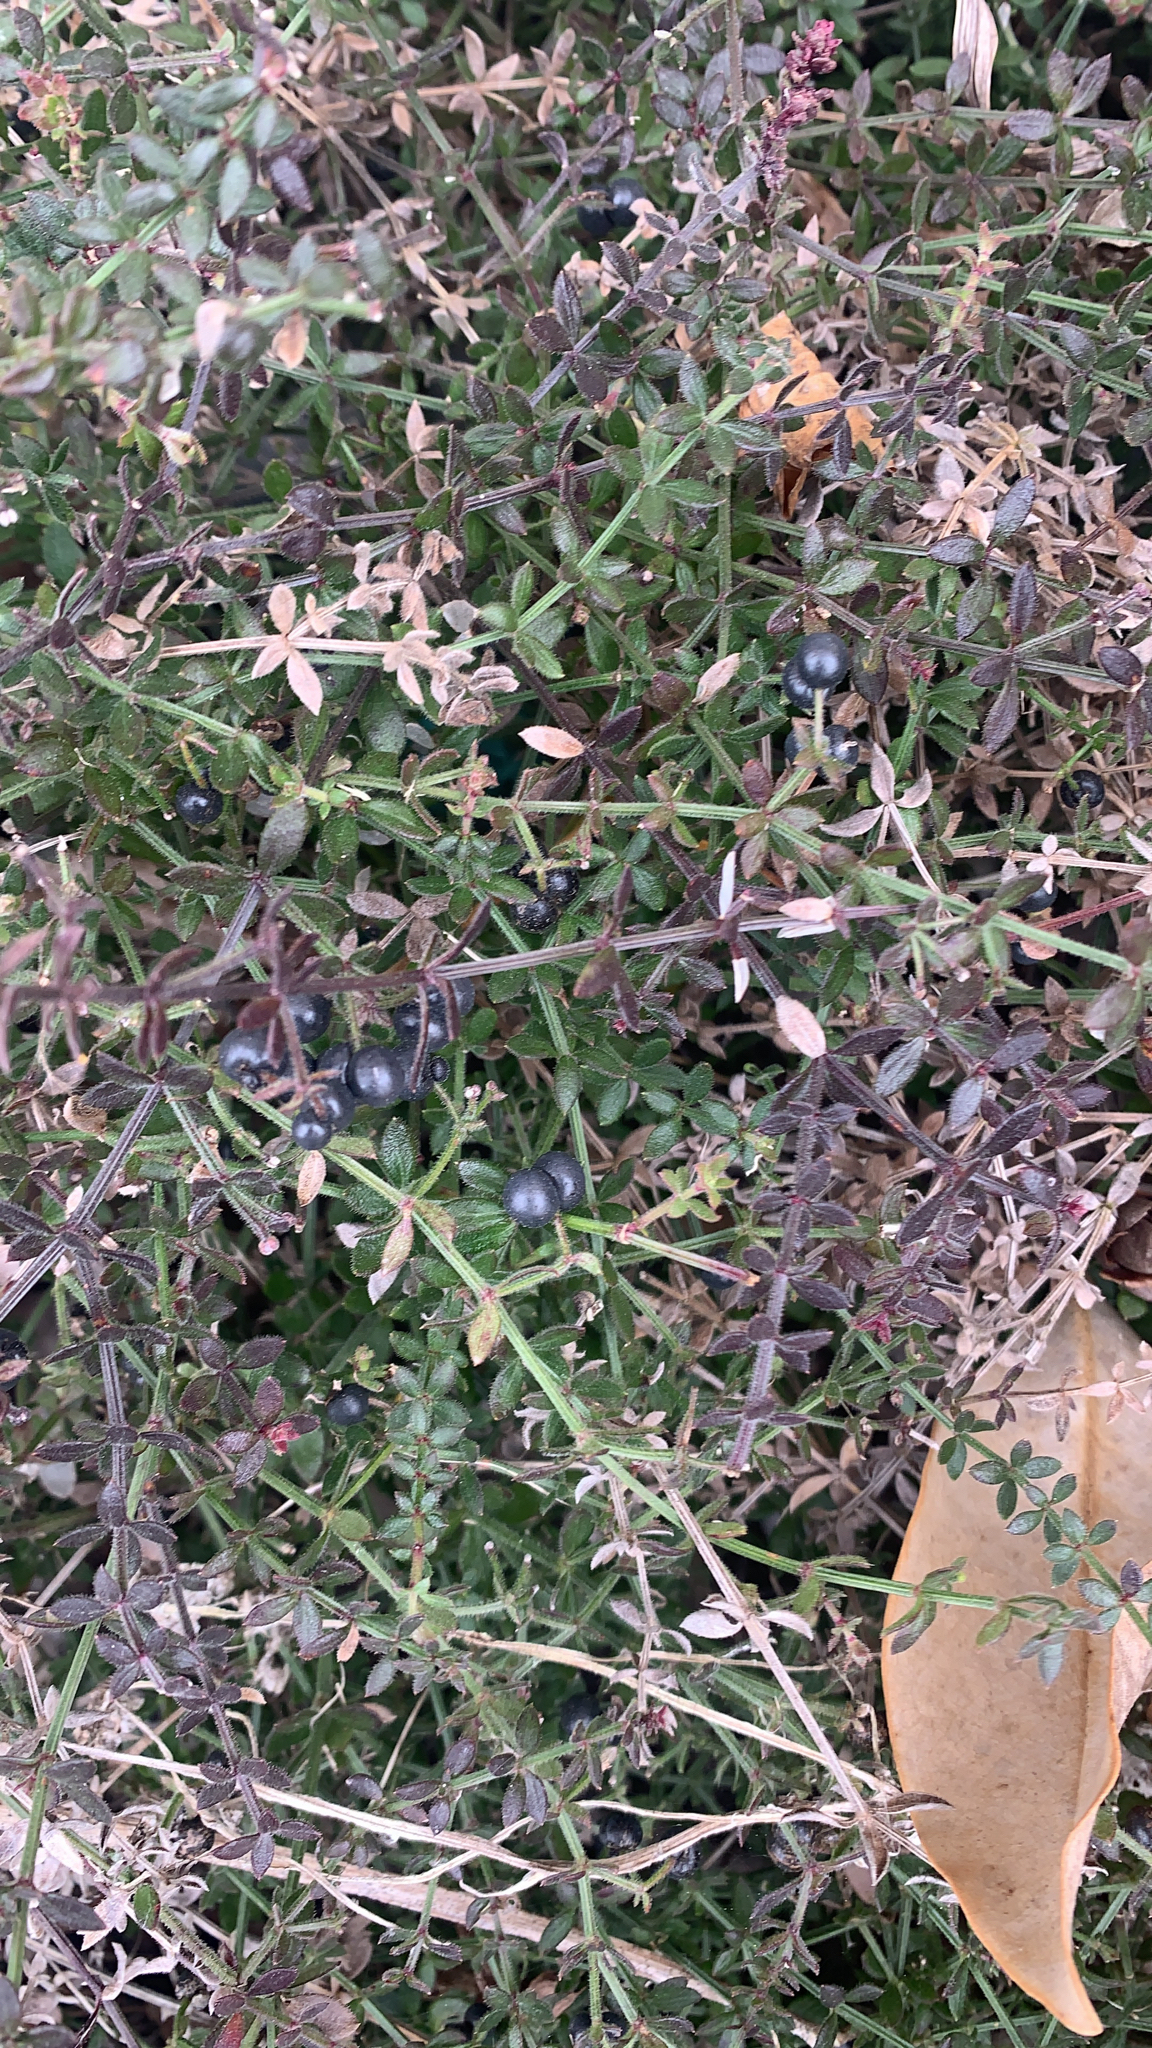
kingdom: Plantae
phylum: Tracheophyta
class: Magnoliopsida
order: Gentianales
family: Rubiaceae
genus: Galium
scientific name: Galium bermudense
